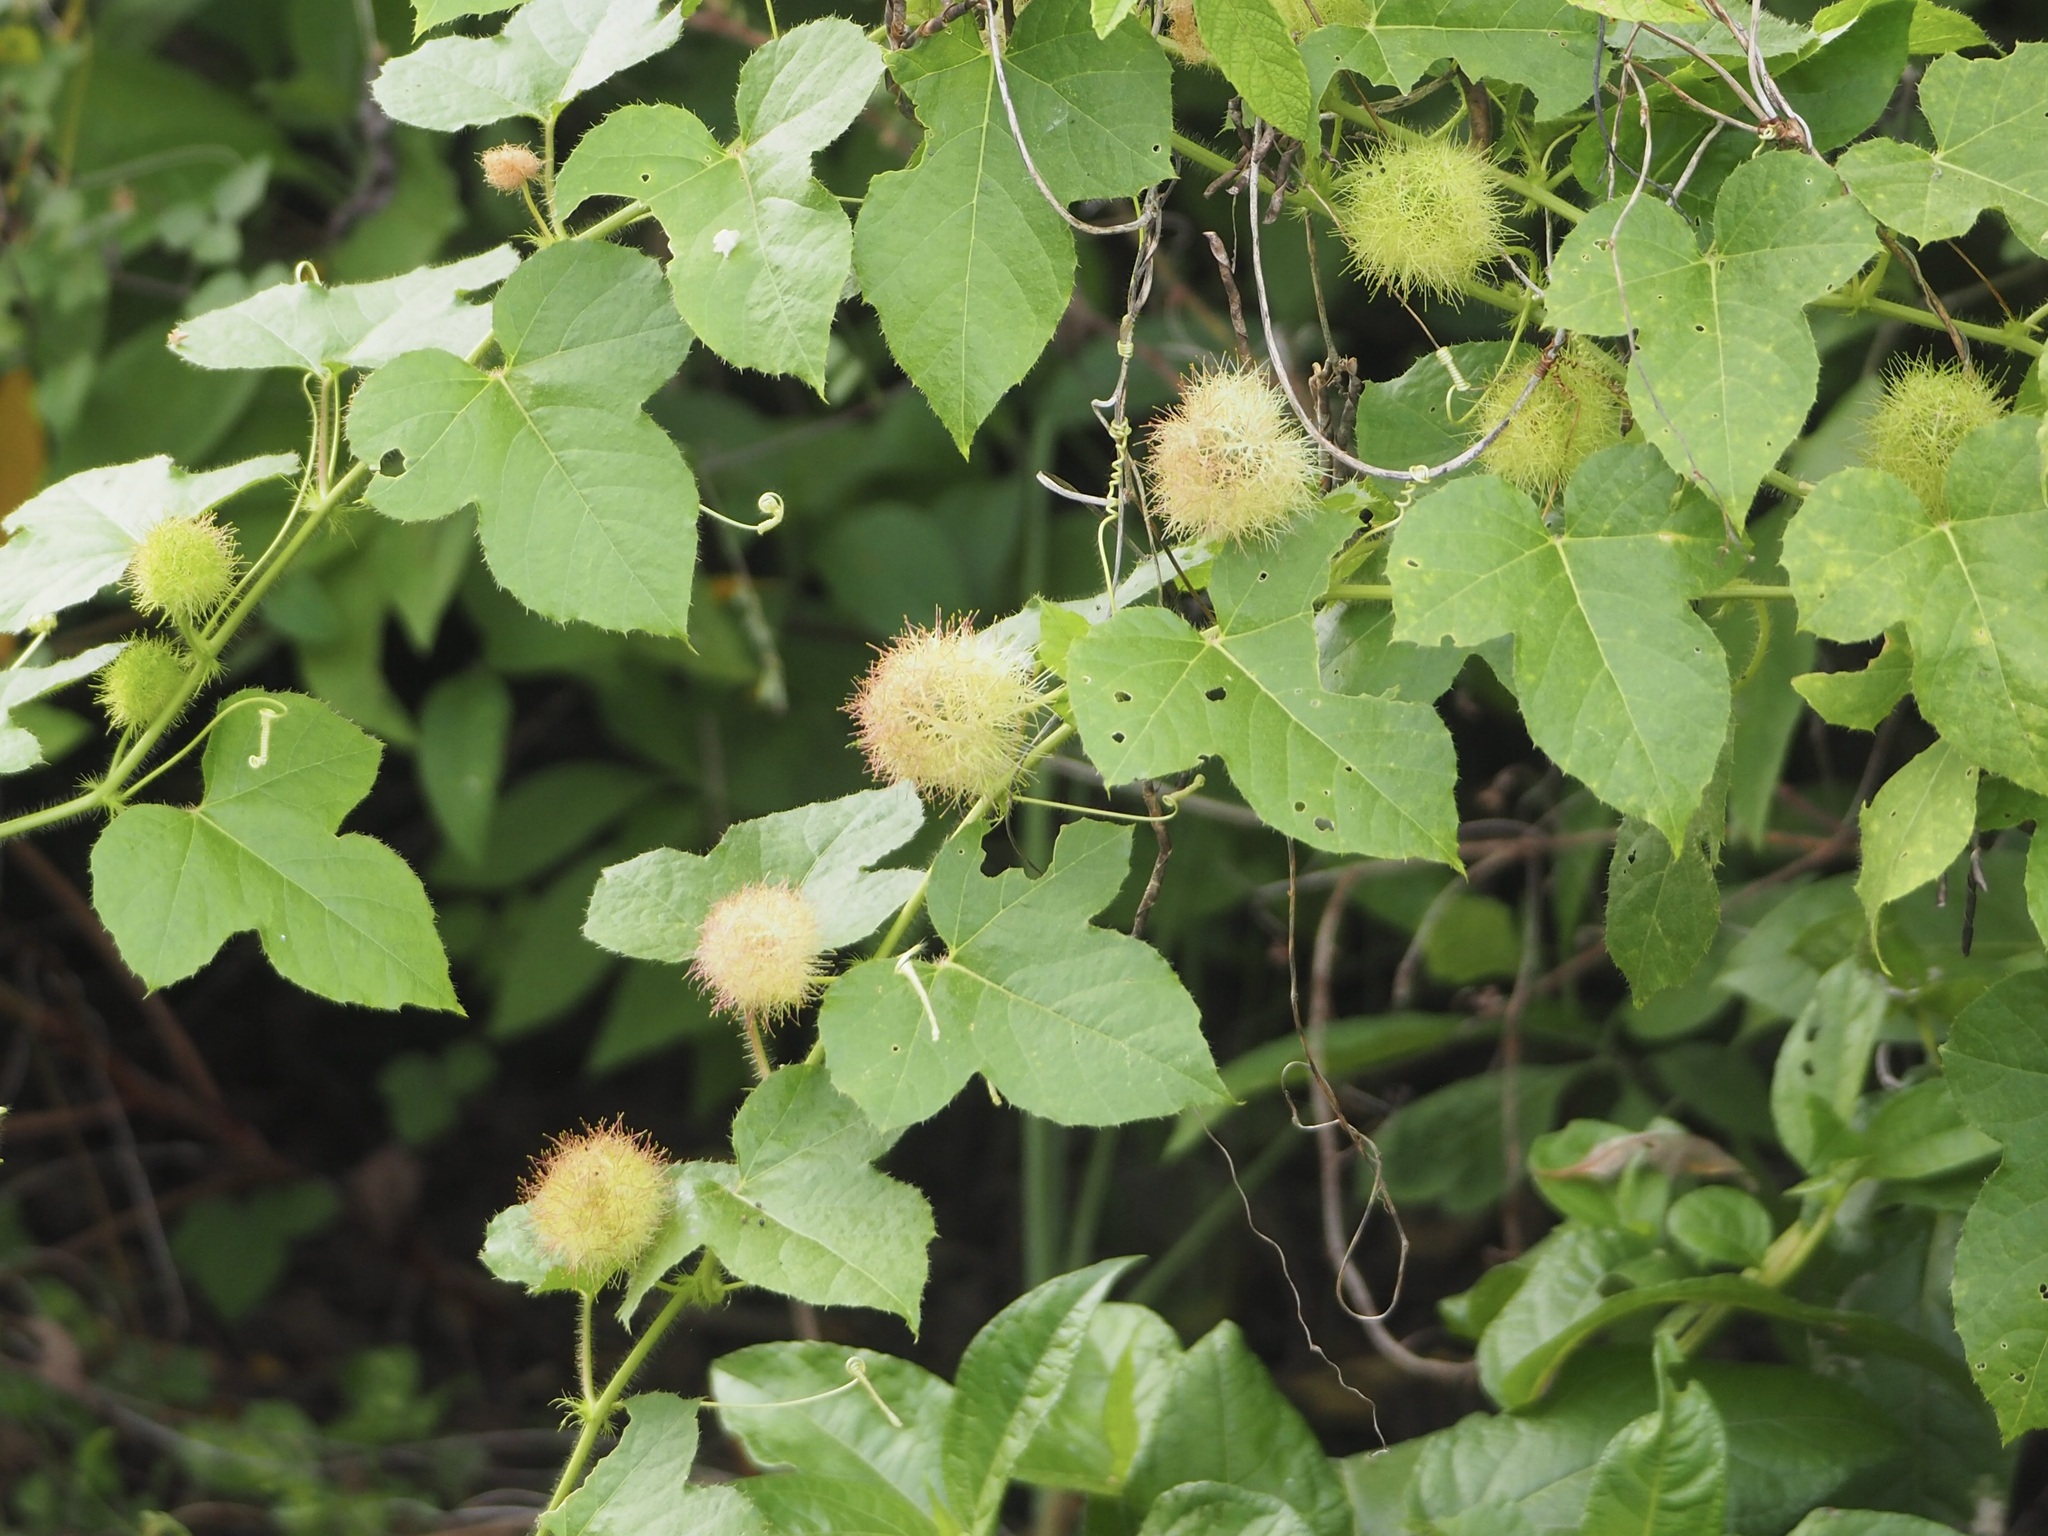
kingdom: Plantae
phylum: Tracheophyta
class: Magnoliopsida
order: Malpighiales
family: Passifloraceae
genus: Passiflora
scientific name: Passiflora foetida
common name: Fetid passionflower
